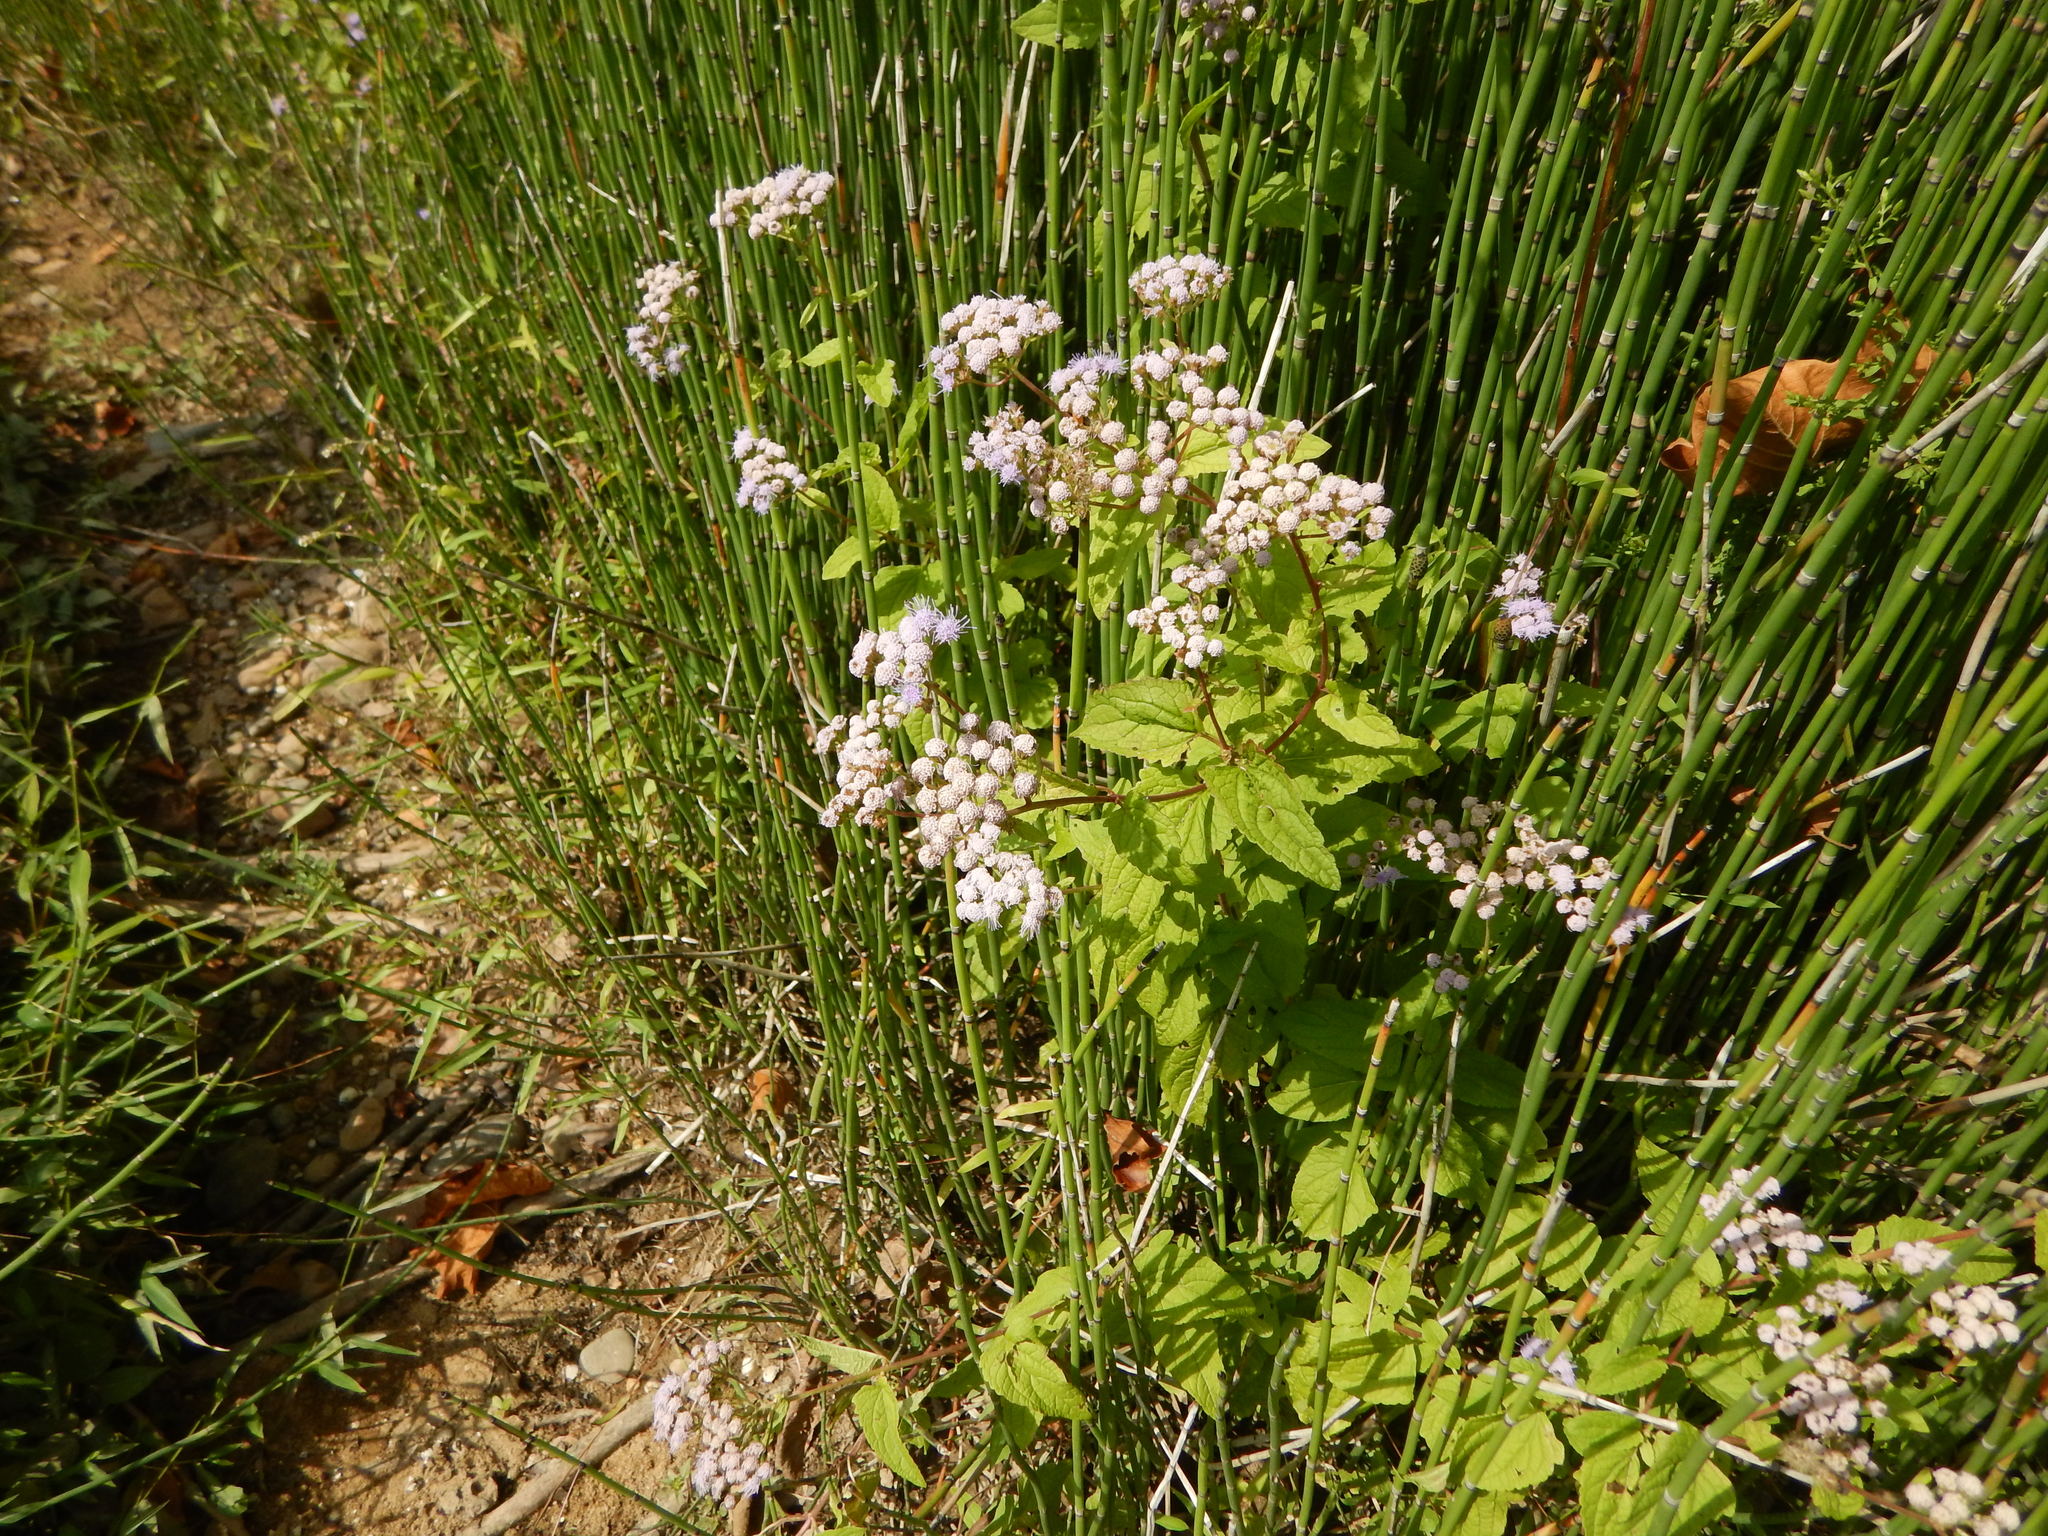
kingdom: Plantae
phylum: Tracheophyta
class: Magnoliopsida
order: Asterales
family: Asteraceae
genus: Conoclinium
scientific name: Conoclinium coelestinum
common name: Blue mistflower
